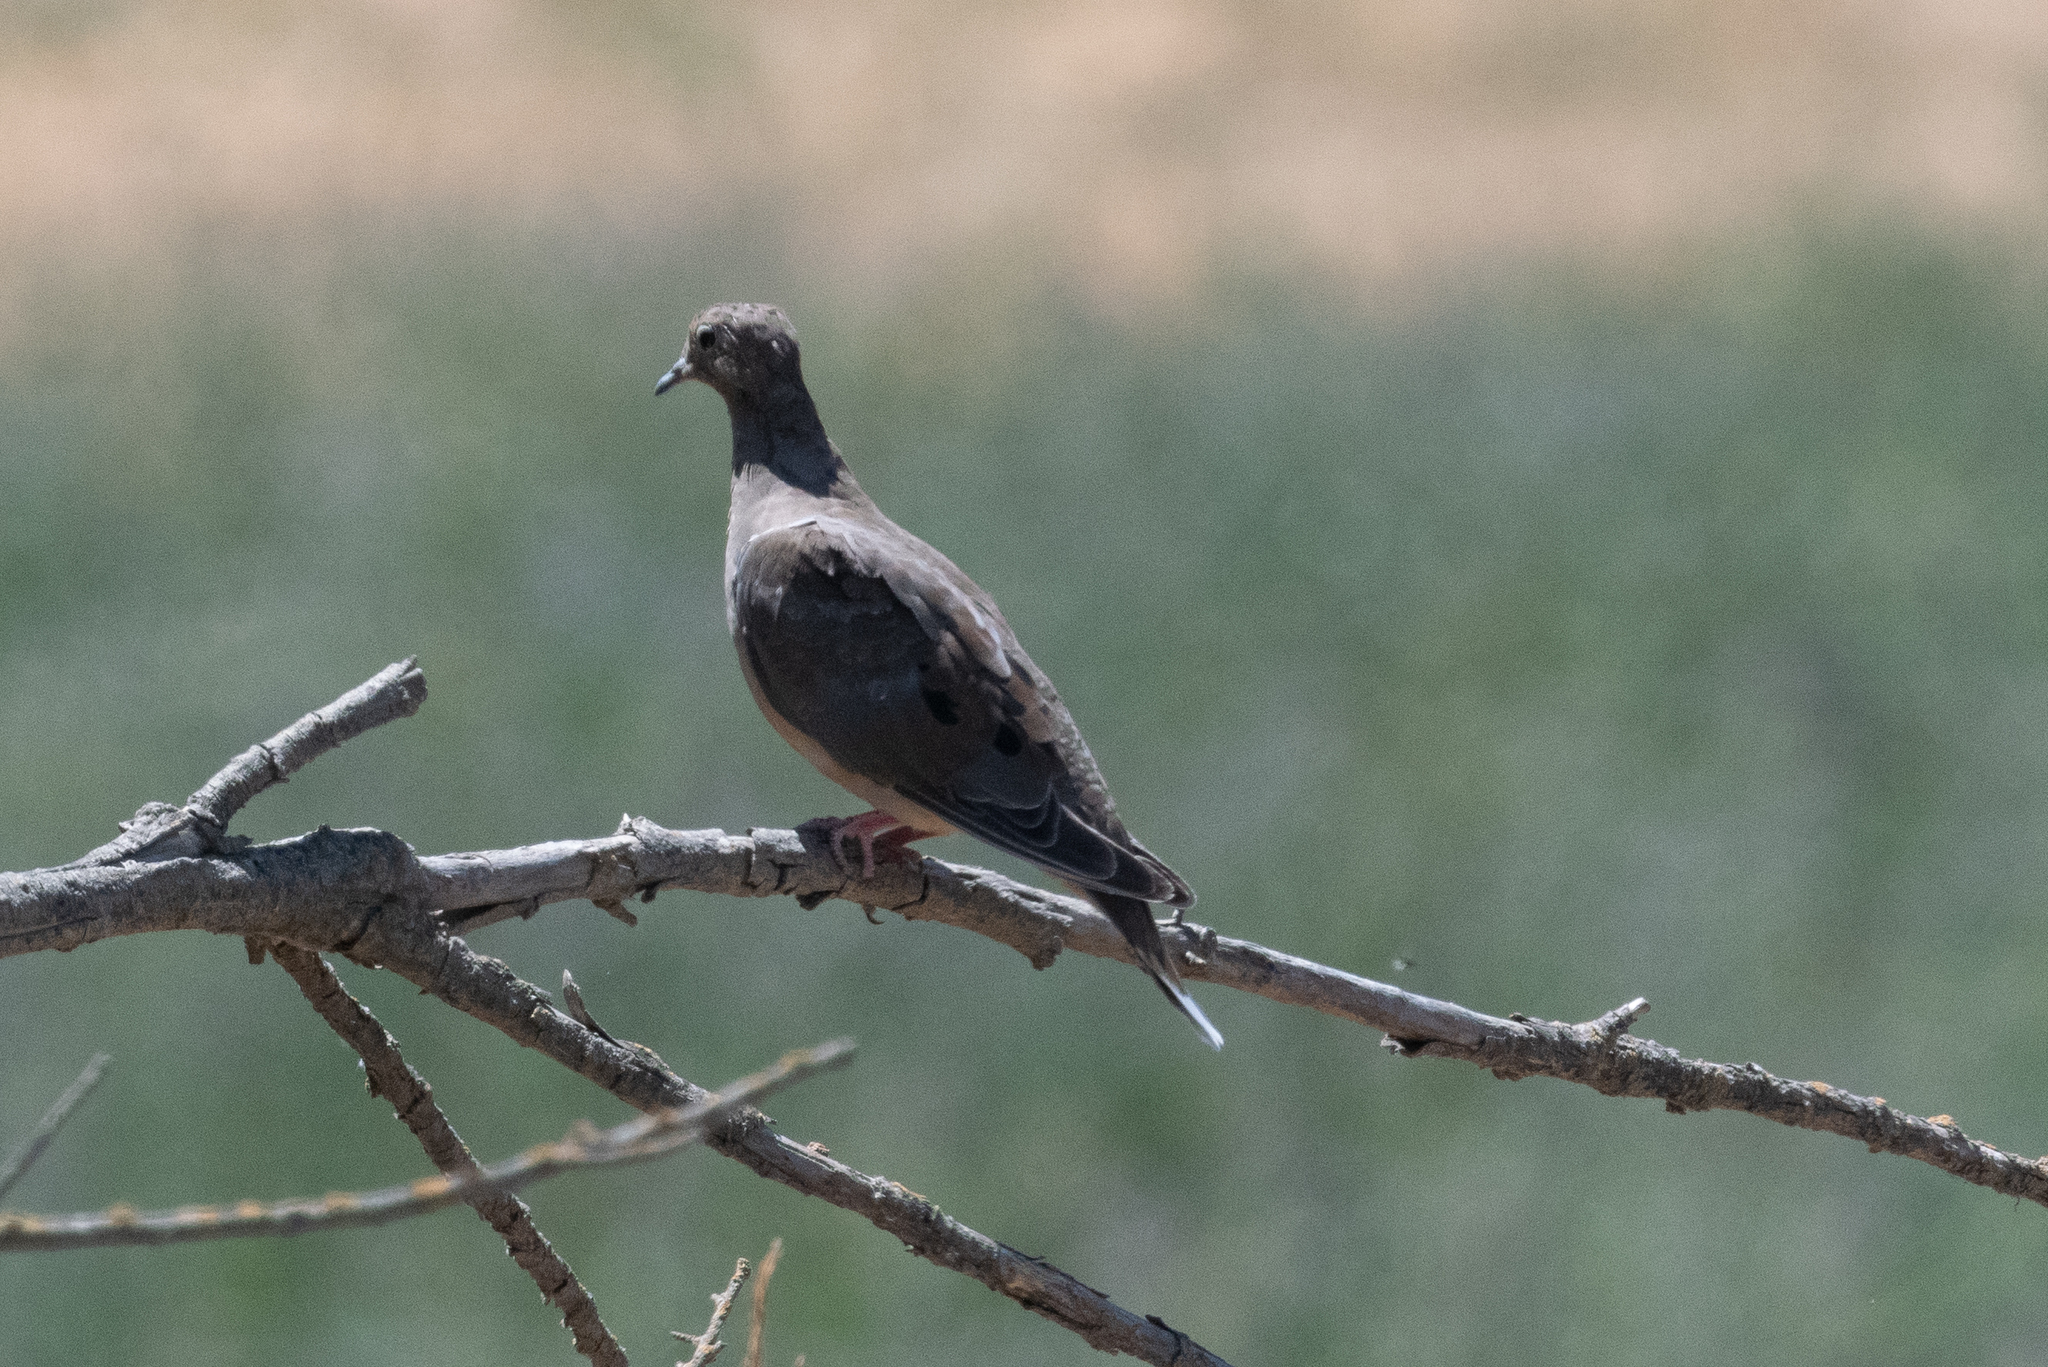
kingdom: Animalia
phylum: Chordata
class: Aves
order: Columbiformes
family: Columbidae
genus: Zenaida
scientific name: Zenaida macroura
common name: Mourning dove
